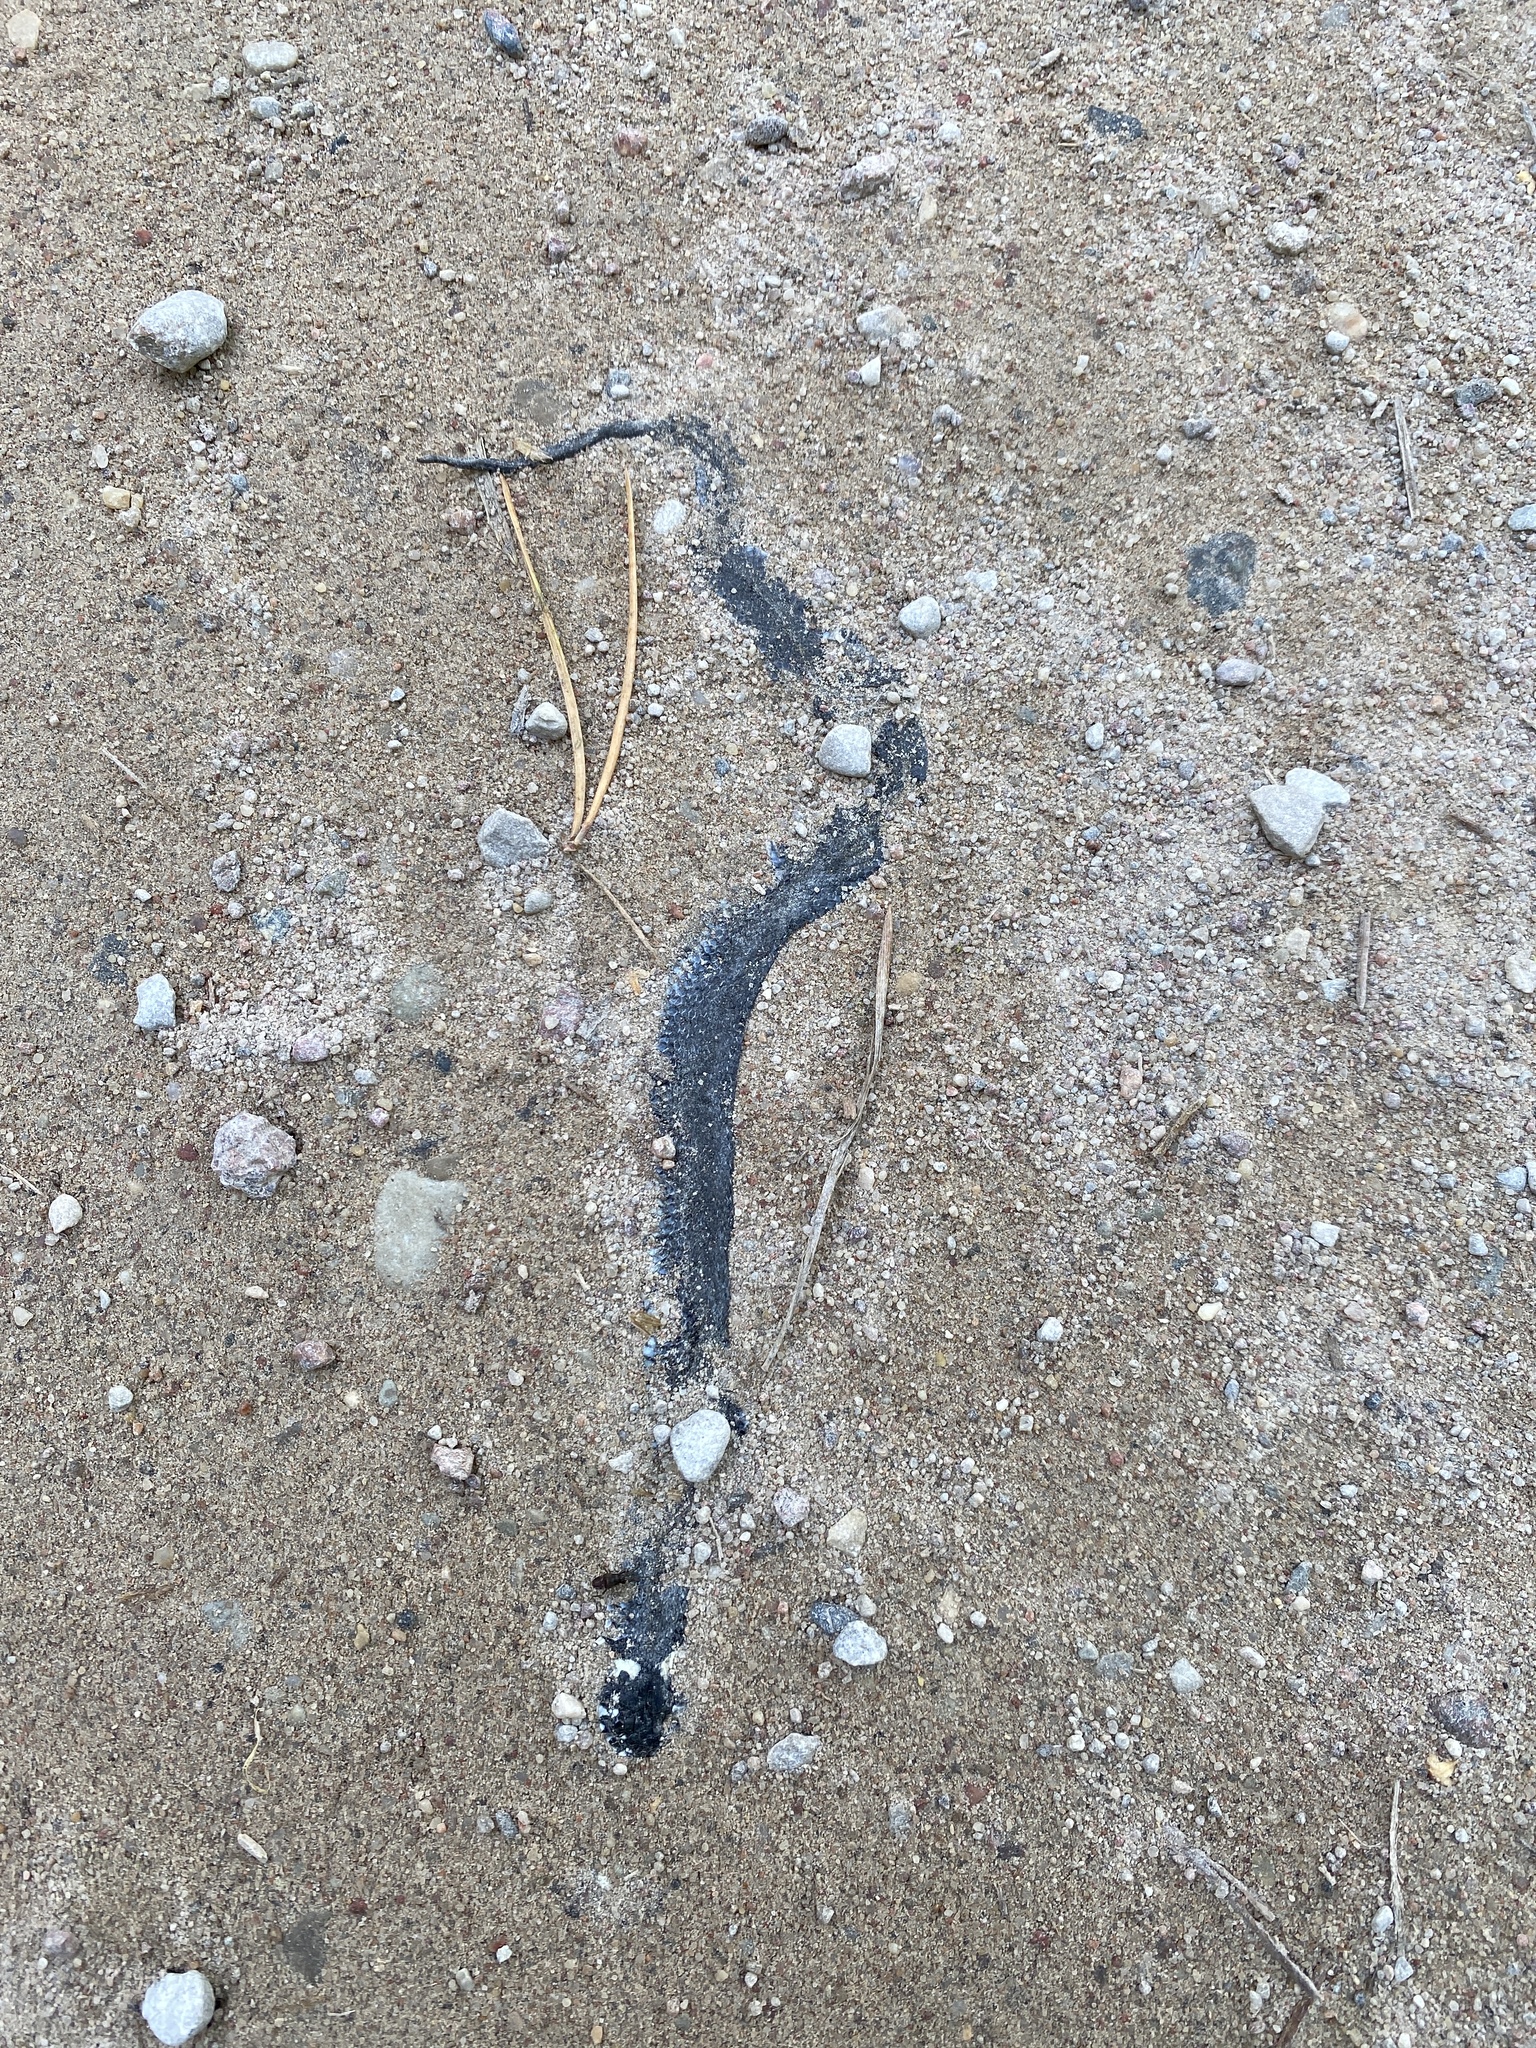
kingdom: Animalia
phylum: Chordata
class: Squamata
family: Colubridae
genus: Natrix
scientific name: Natrix natrix
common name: Grass snake
